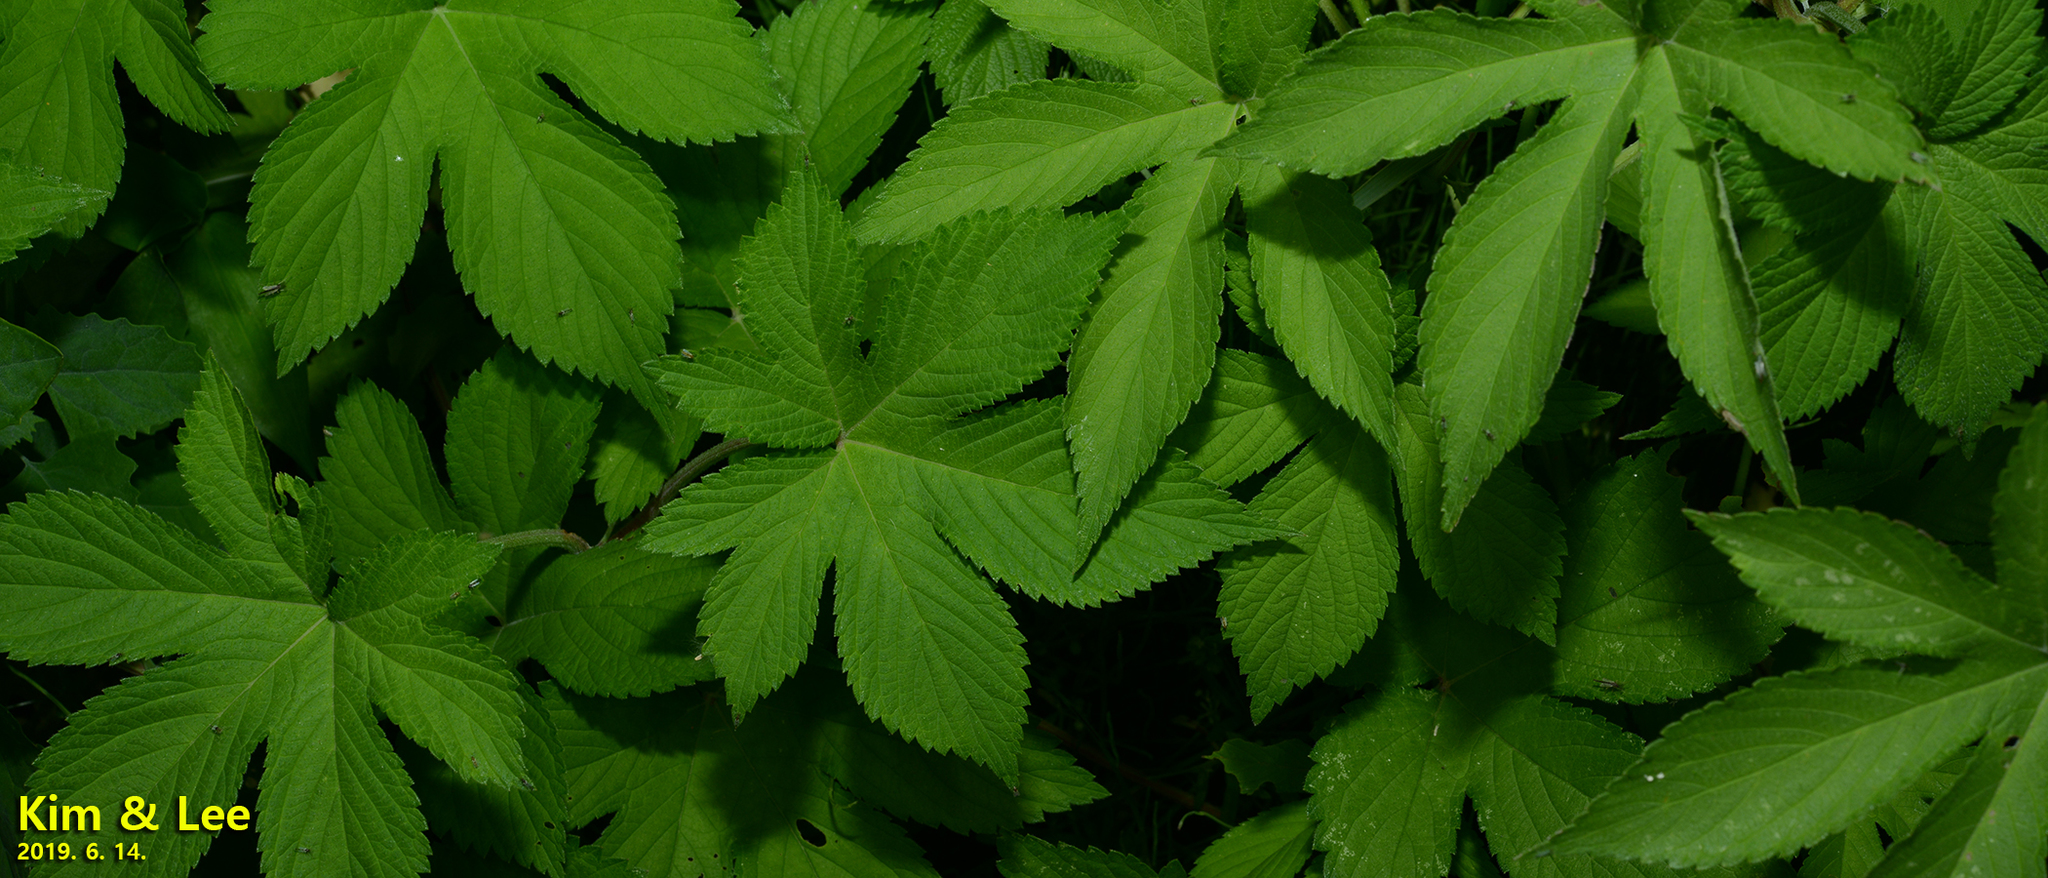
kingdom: Plantae
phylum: Tracheophyta
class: Magnoliopsida
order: Rosales
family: Cannabaceae
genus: Humulus
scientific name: Humulus scandens
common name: Japanese hop
